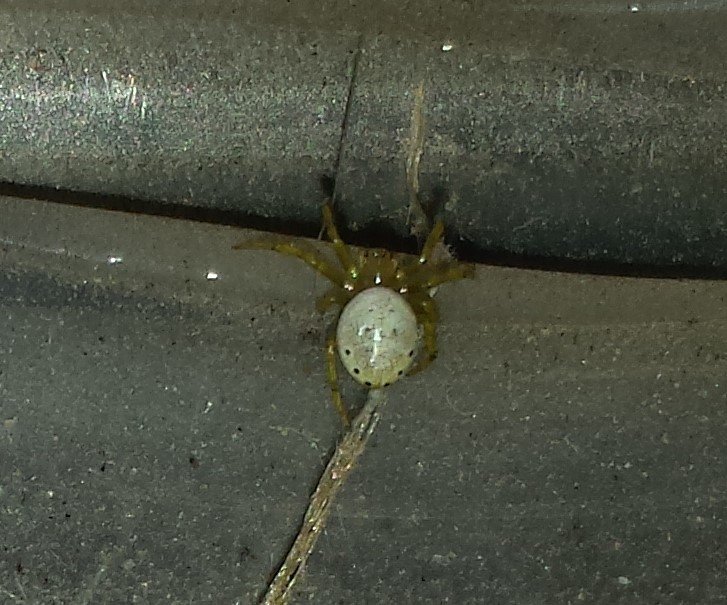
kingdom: Animalia
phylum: Arthropoda
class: Arachnida
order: Araneae
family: Araneidae
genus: Araniella
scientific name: Araniella displicata
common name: Sixspotted orb weaver
